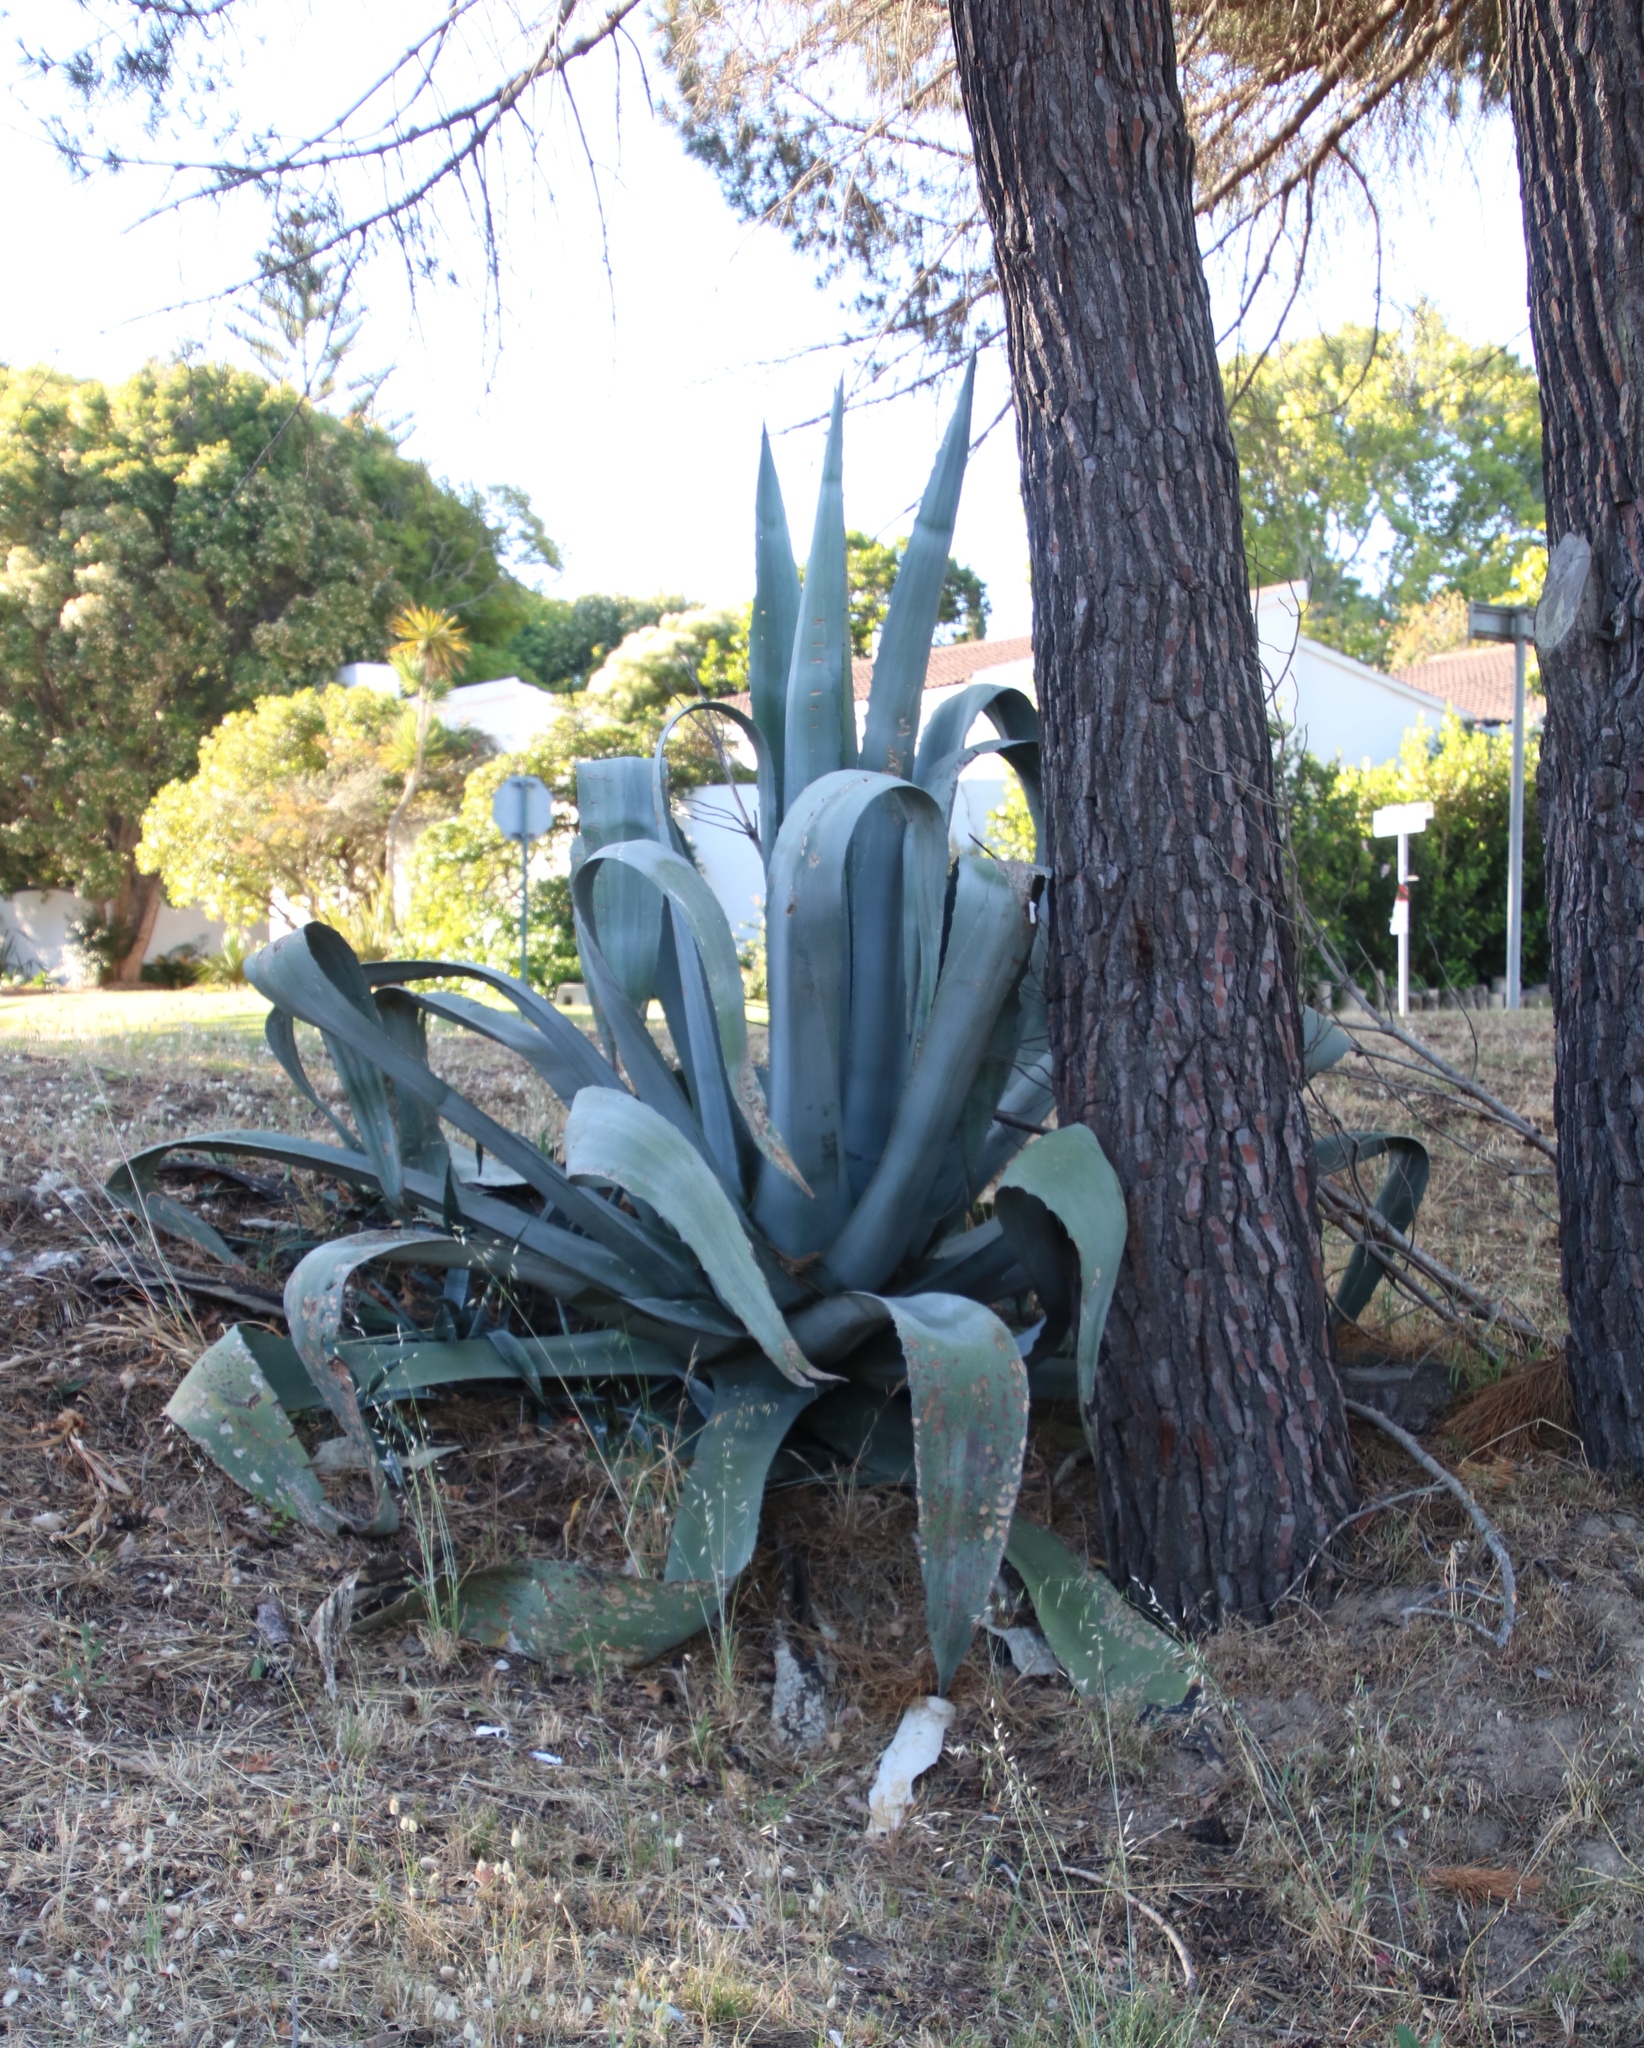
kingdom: Plantae
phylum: Tracheophyta
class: Liliopsida
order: Asparagales
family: Asparagaceae
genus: Agave
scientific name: Agave mapisaga
